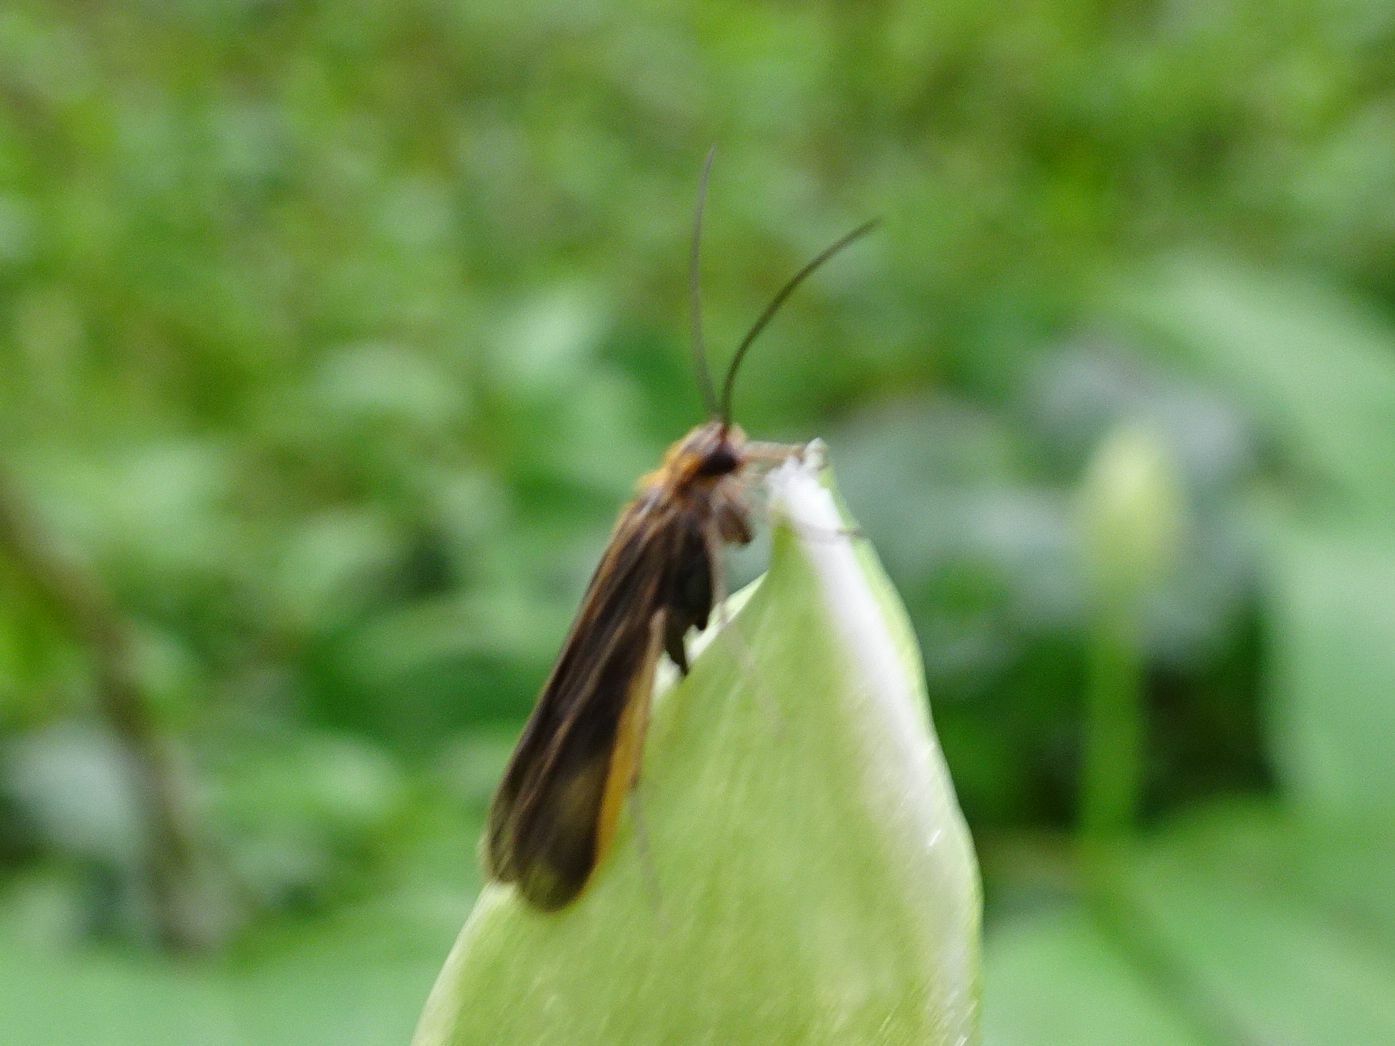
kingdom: Animalia
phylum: Arthropoda
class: Insecta
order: Trichoptera
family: Philopotamidae
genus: Chimarra
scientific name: Chimarra marginata
